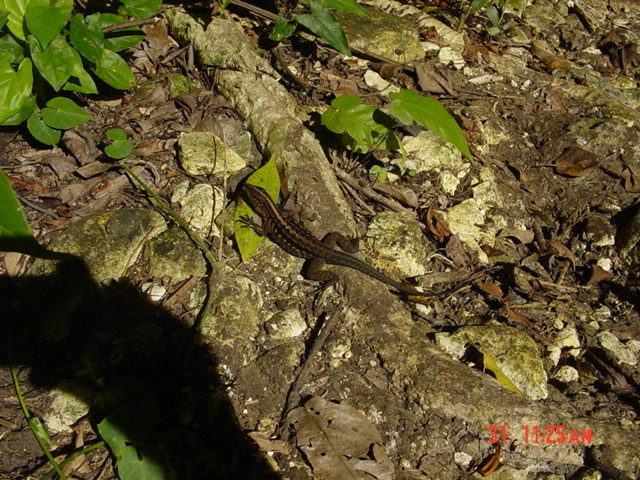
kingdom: Animalia
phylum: Chordata
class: Squamata
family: Teiidae
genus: Holcosus
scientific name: Holcosus festivus
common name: Middle american ameiva
